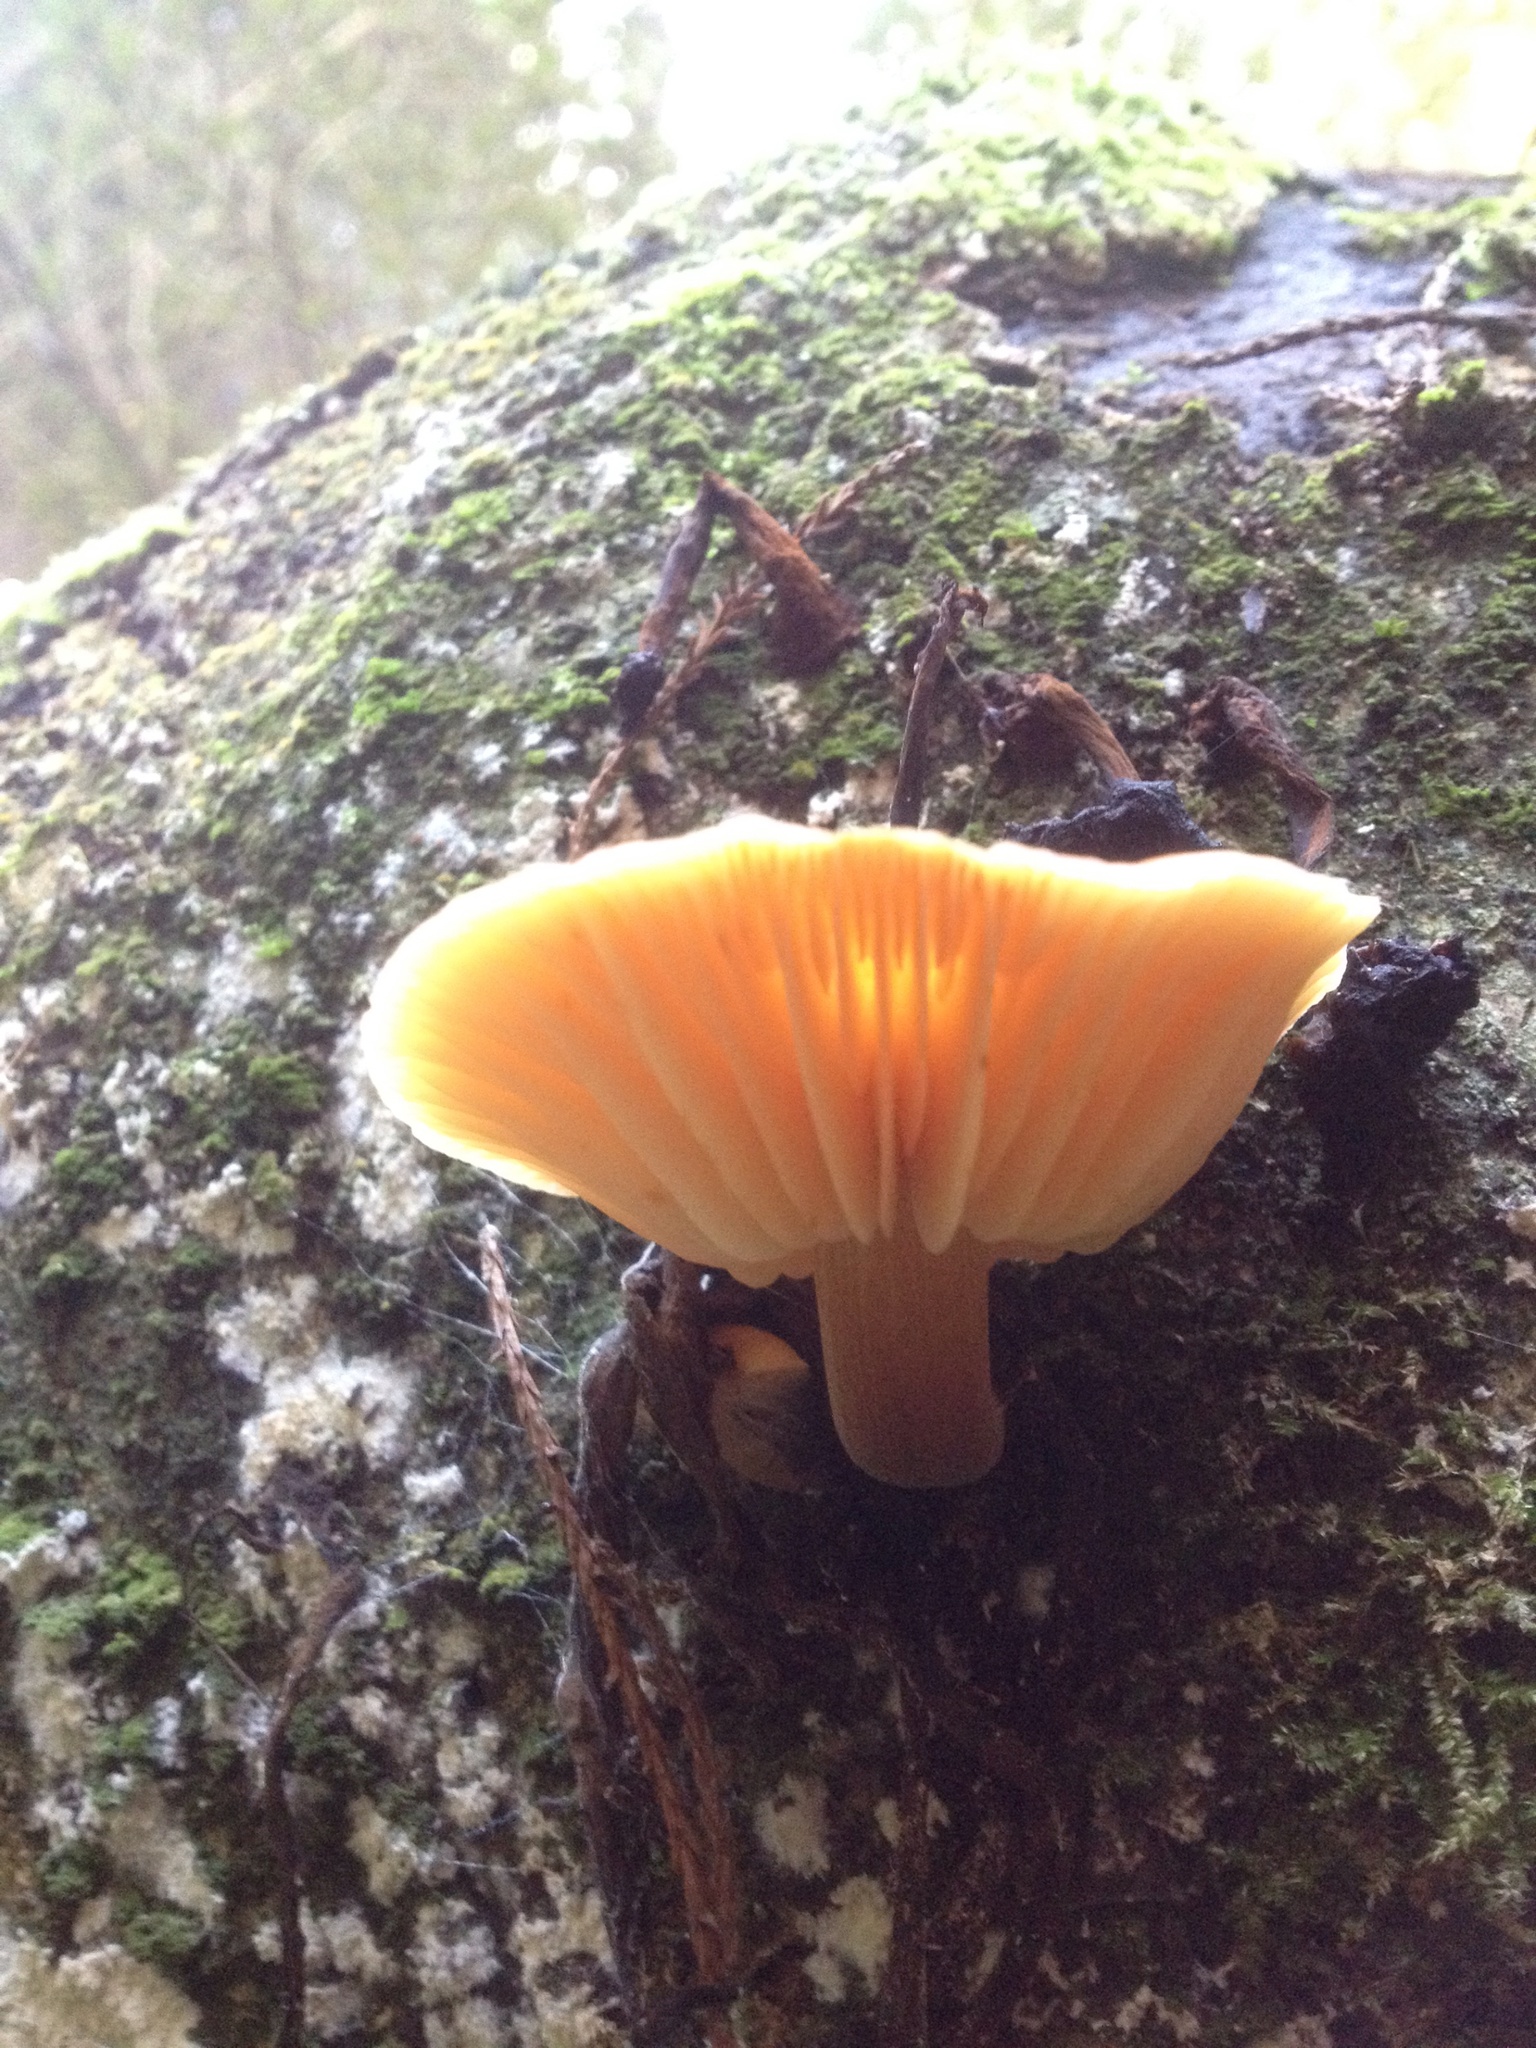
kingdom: Fungi
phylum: Basidiomycota
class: Agaricomycetes
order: Agaricales
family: Physalacriaceae
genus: Flammulina
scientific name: Flammulina velutipes
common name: Velvet shank
